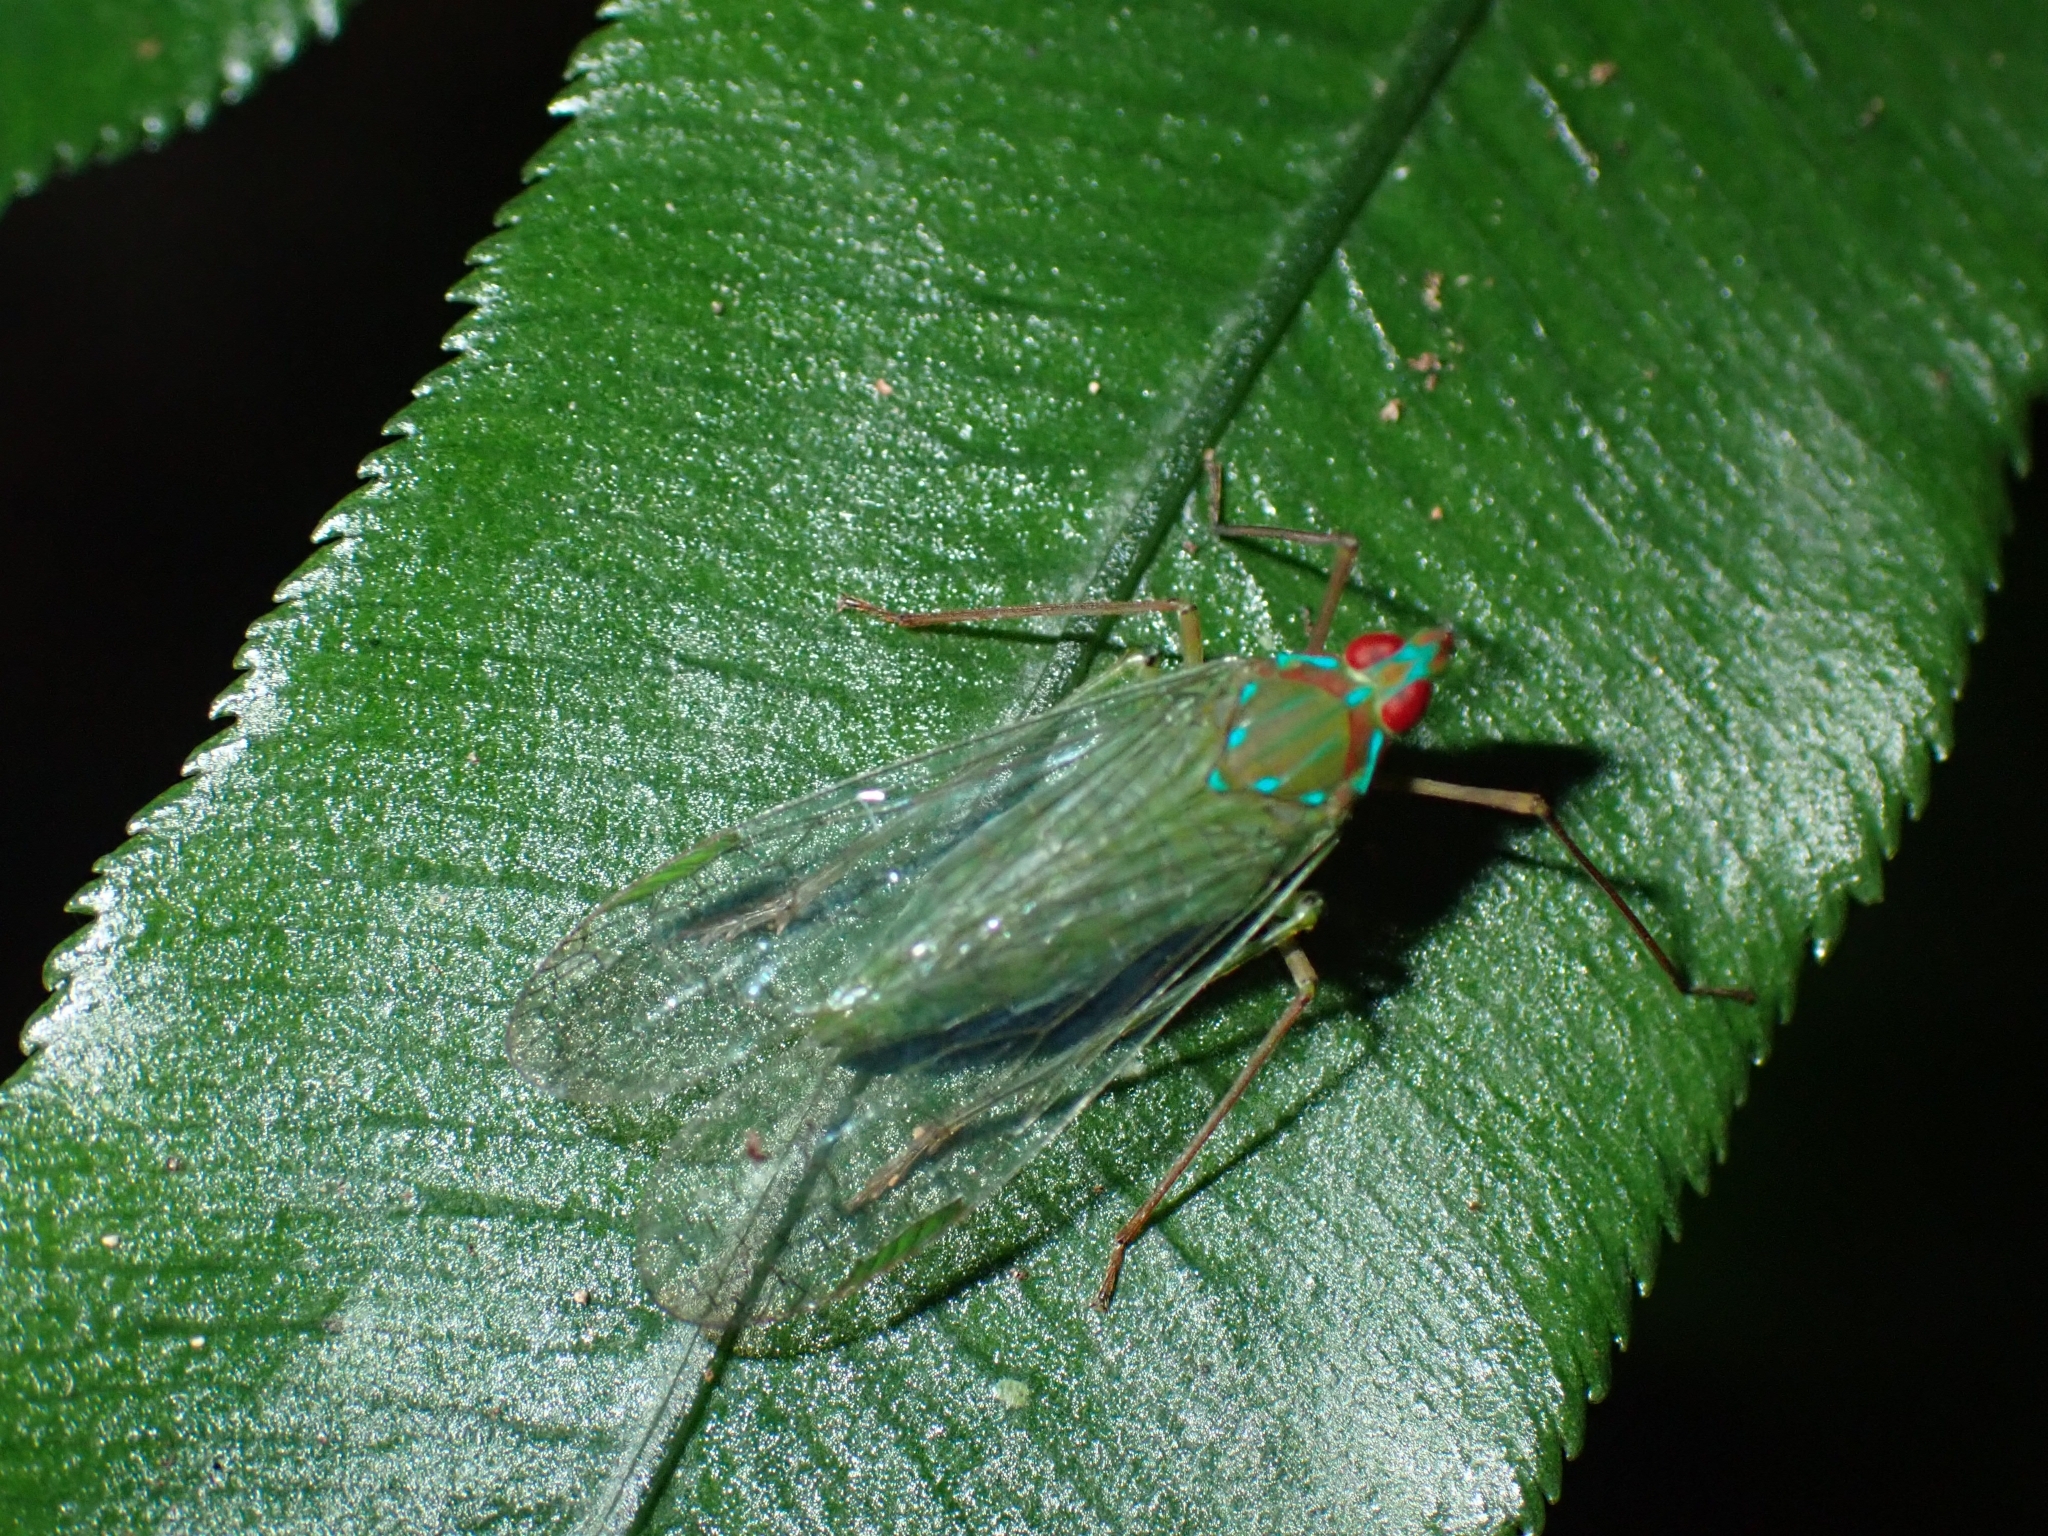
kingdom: Animalia
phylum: Arthropoda
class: Insecta
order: Hemiptera
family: Dictyopharidae
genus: Centromeria
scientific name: Centromeria speilinea
